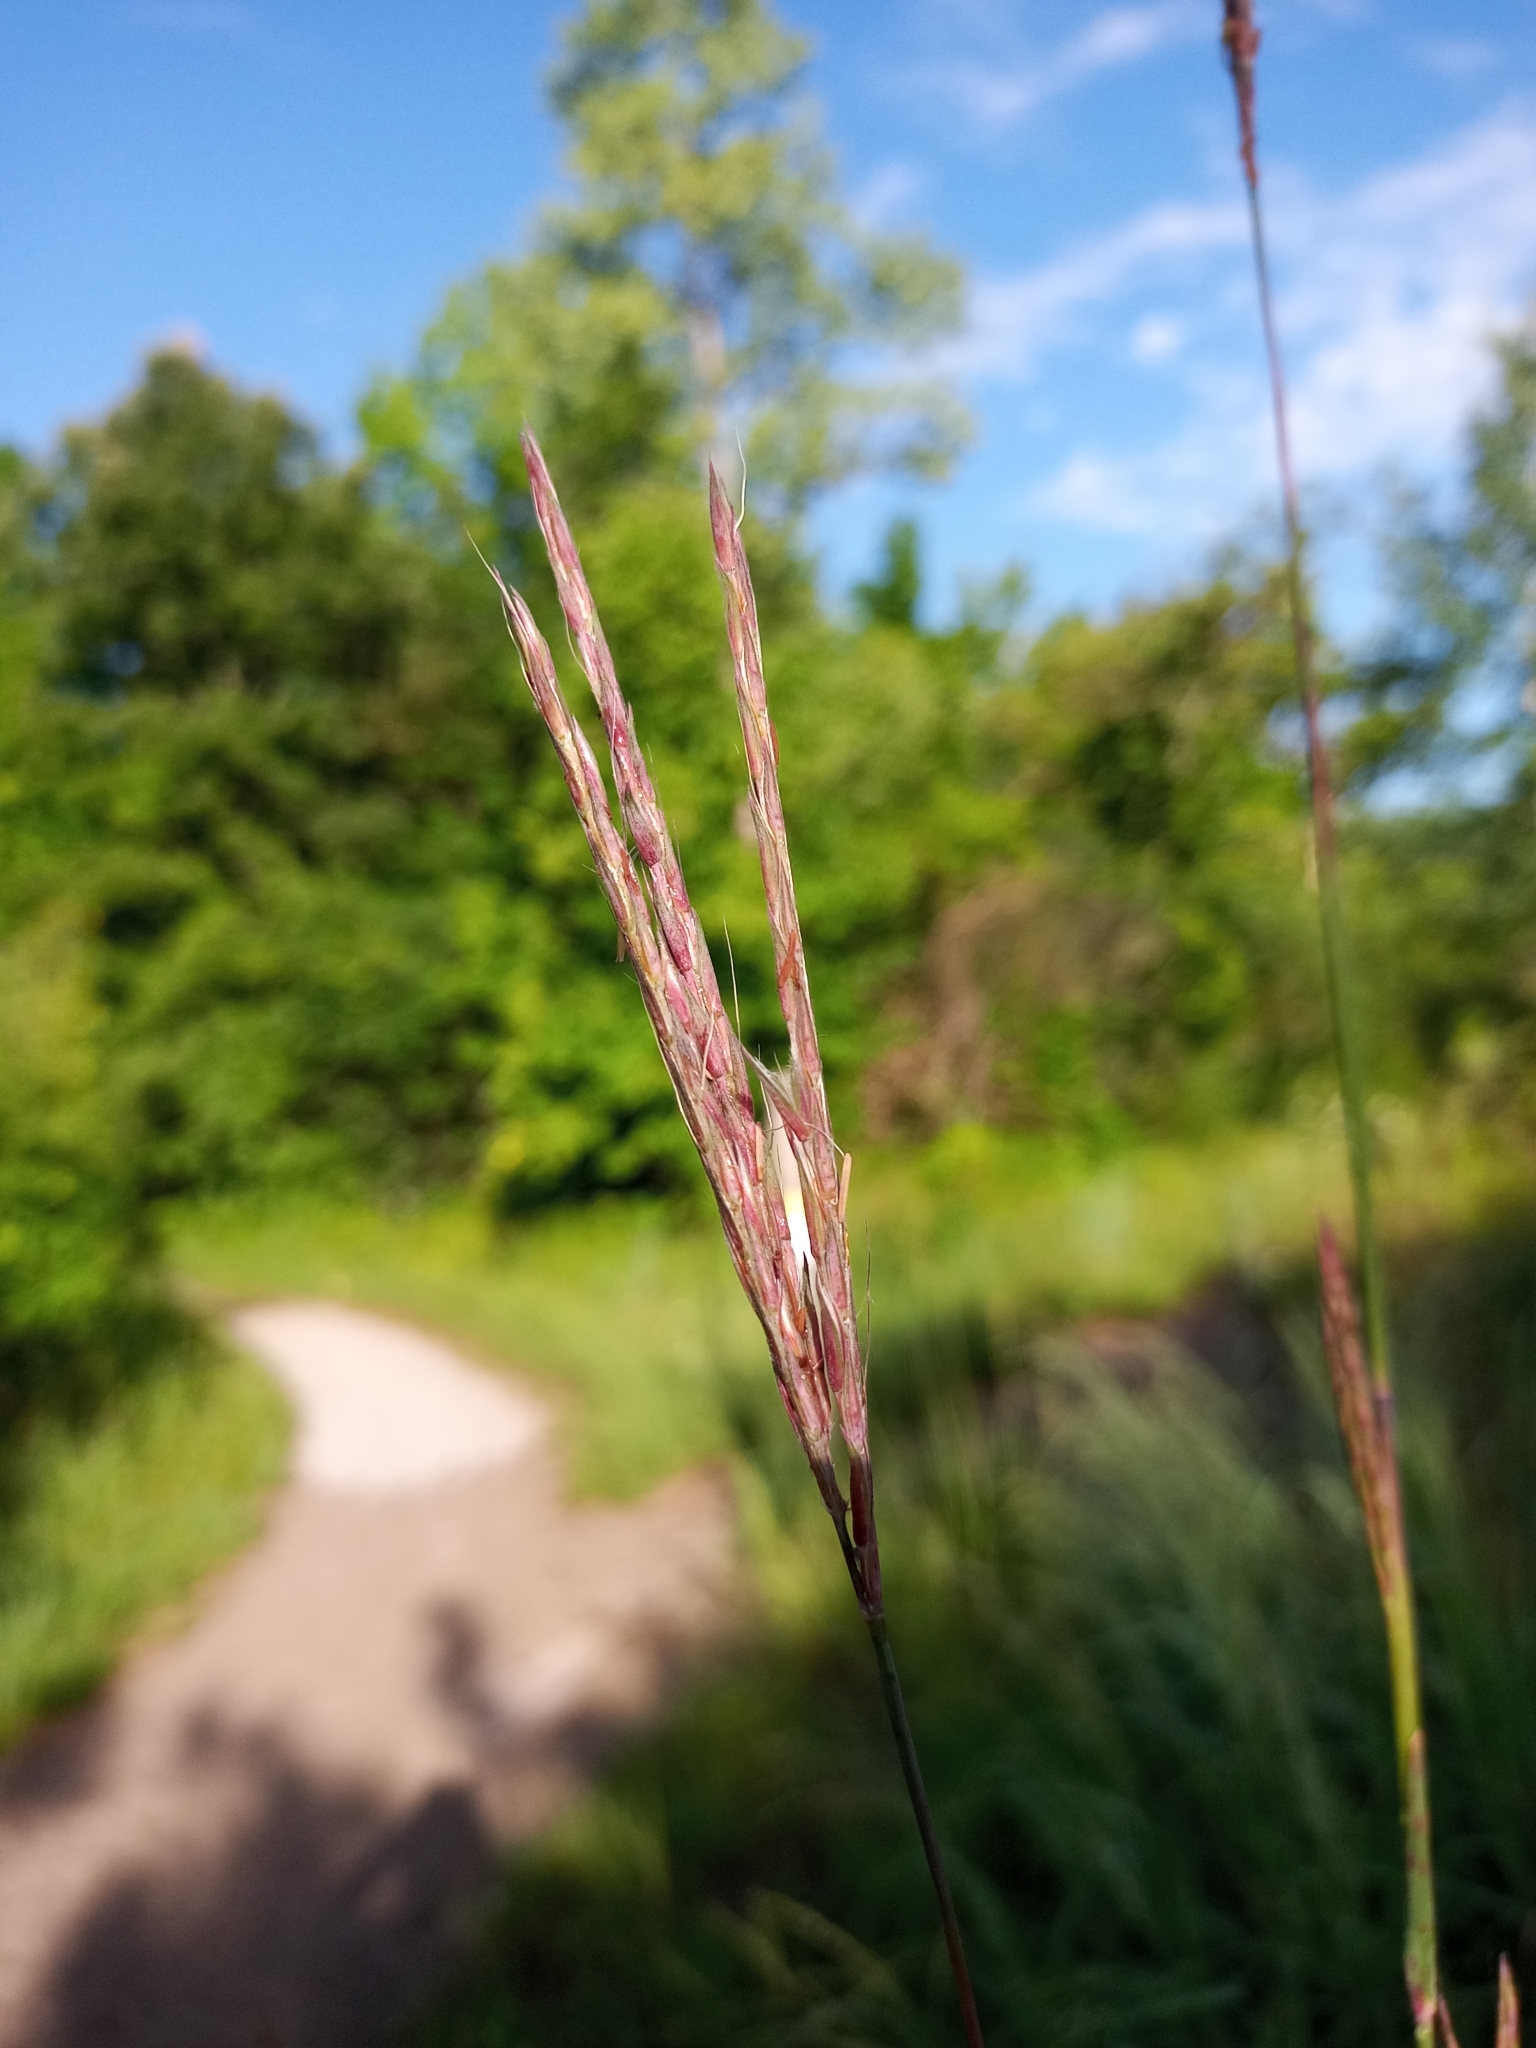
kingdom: Plantae
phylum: Tracheophyta
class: Liliopsida
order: Poales
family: Poaceae
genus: Andropogon
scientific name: Andropogon gerardi
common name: Big bluestem
